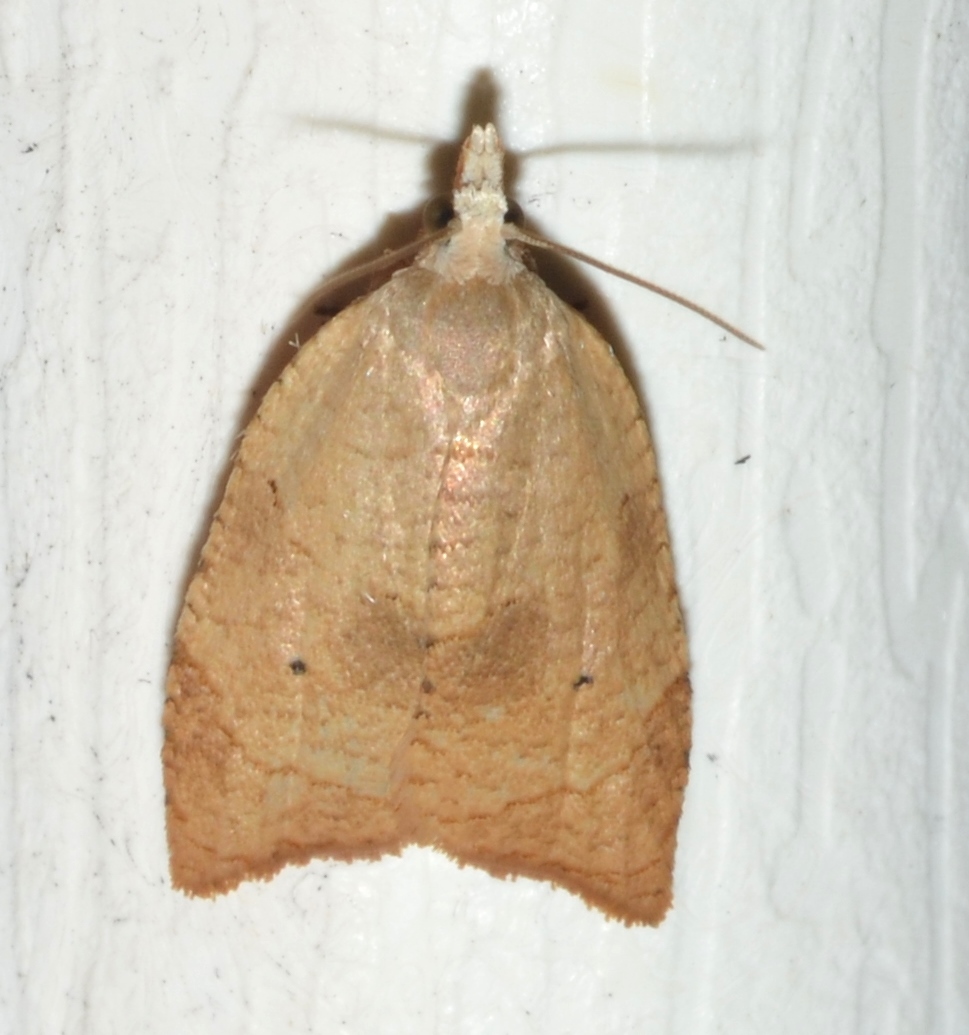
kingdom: Animalia
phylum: Arthropoda
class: Insecta
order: Lepidoptera
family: Tortricidae
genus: Coelostathma
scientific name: Coelostathma discopunctana
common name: Batman moth
